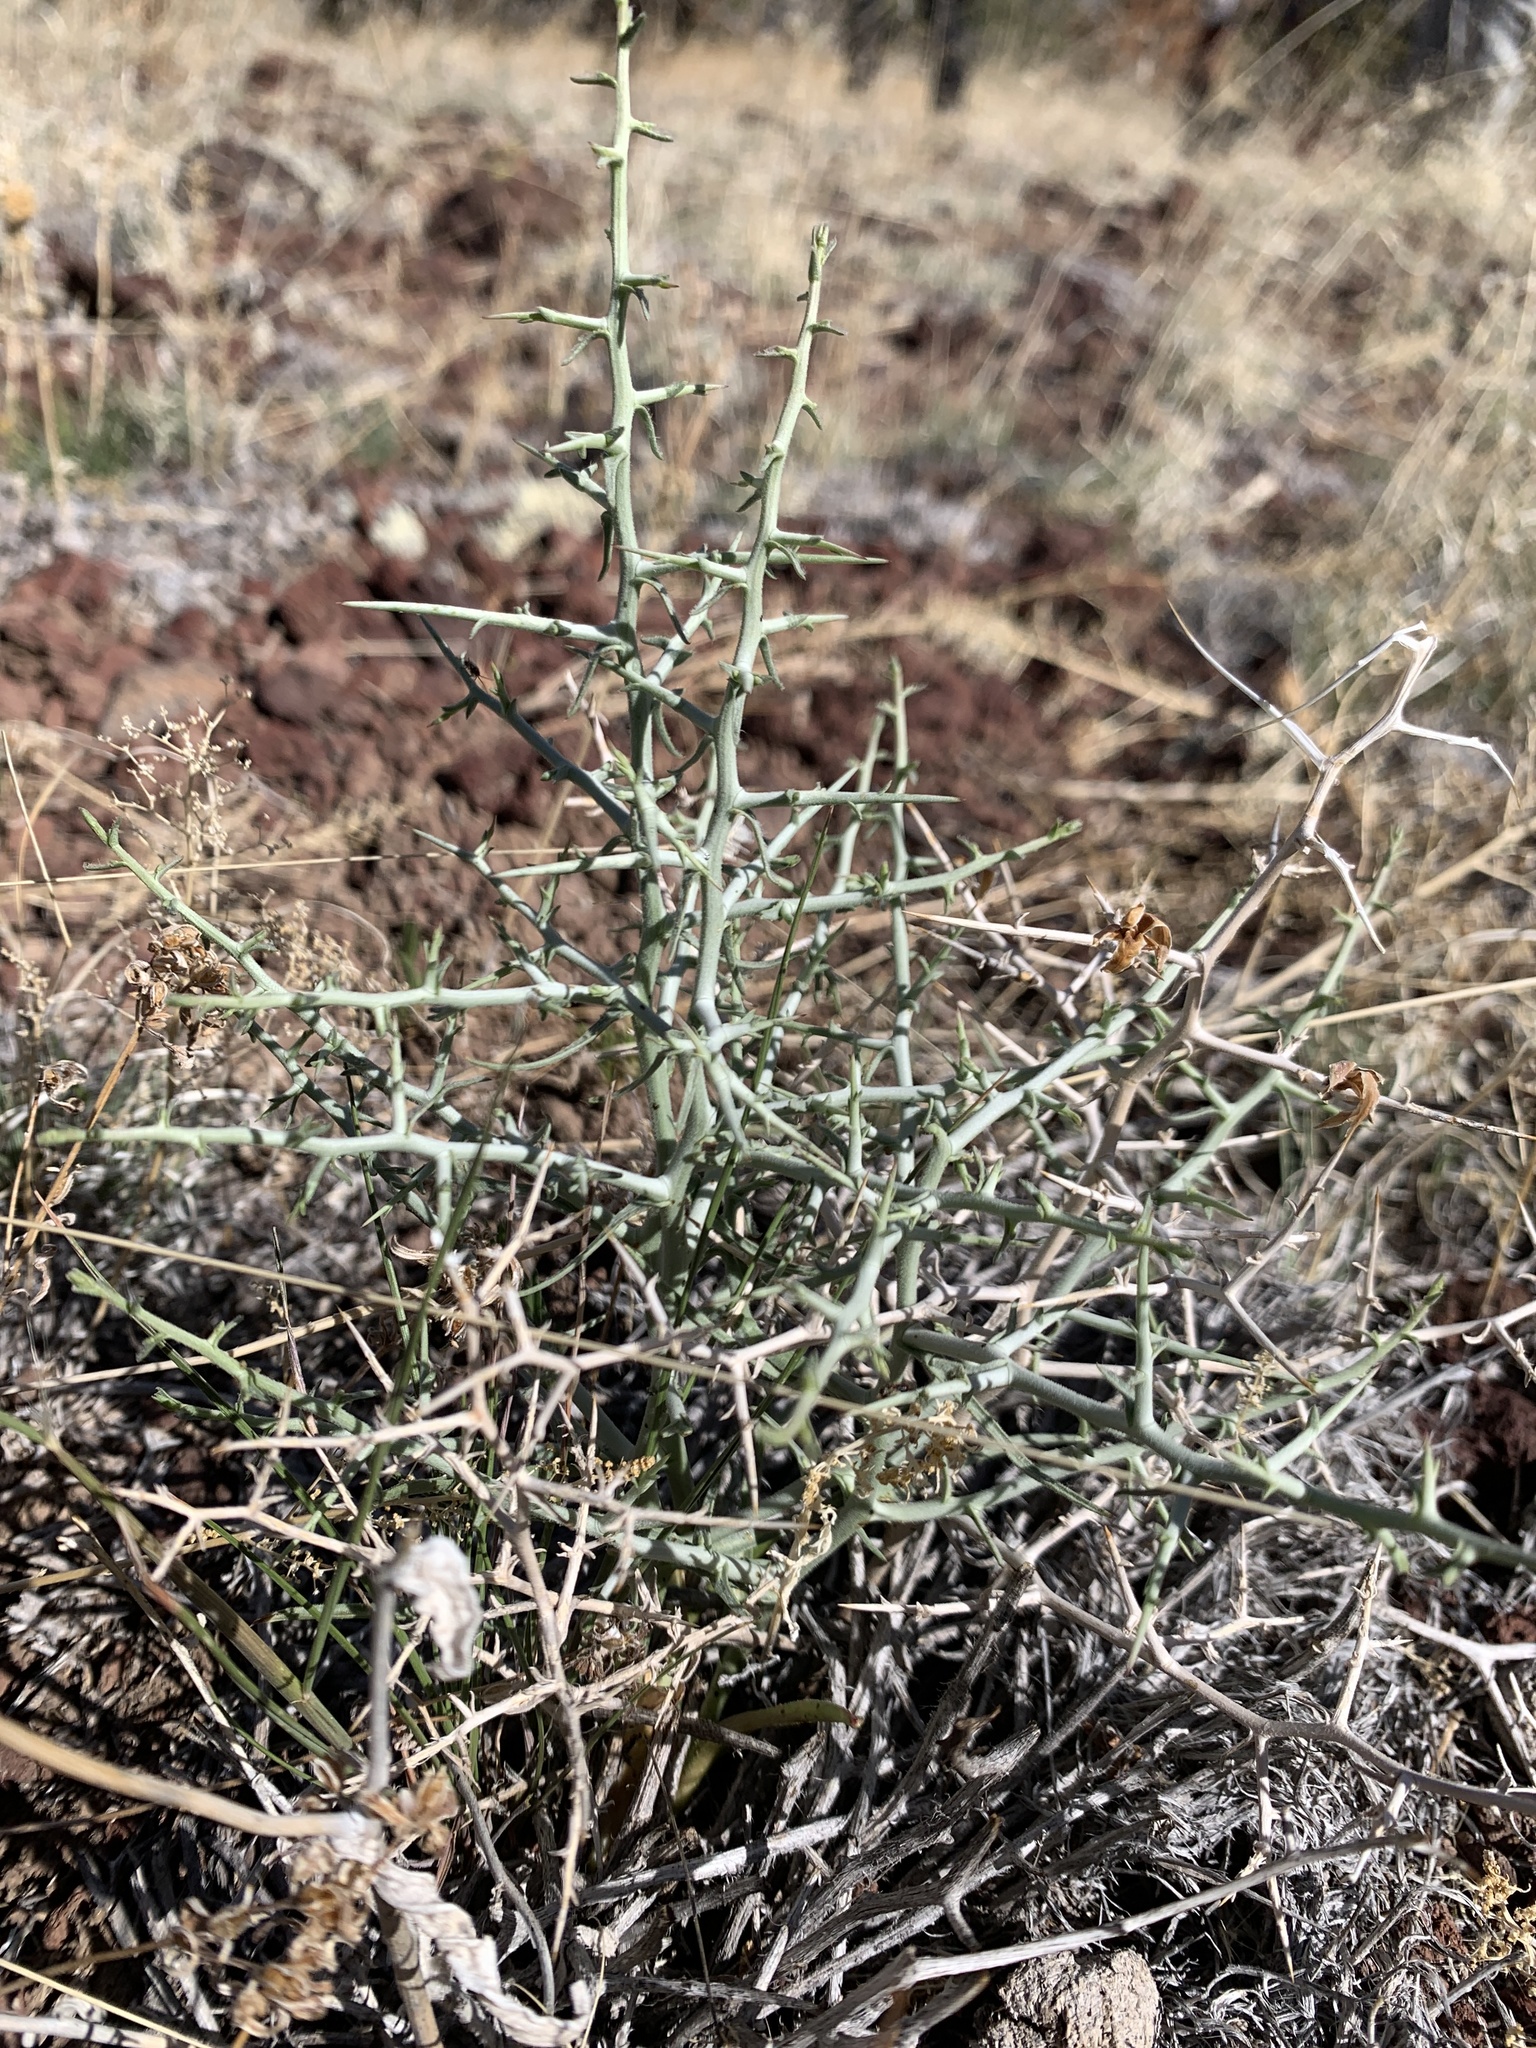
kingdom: Plantae
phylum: Tracheophyta
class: Magnoliopsida
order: Asterales
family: Asteraceae
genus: Pleiacanthus
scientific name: Pleiacanthus spinosus
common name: Thorny skeleton-weed
